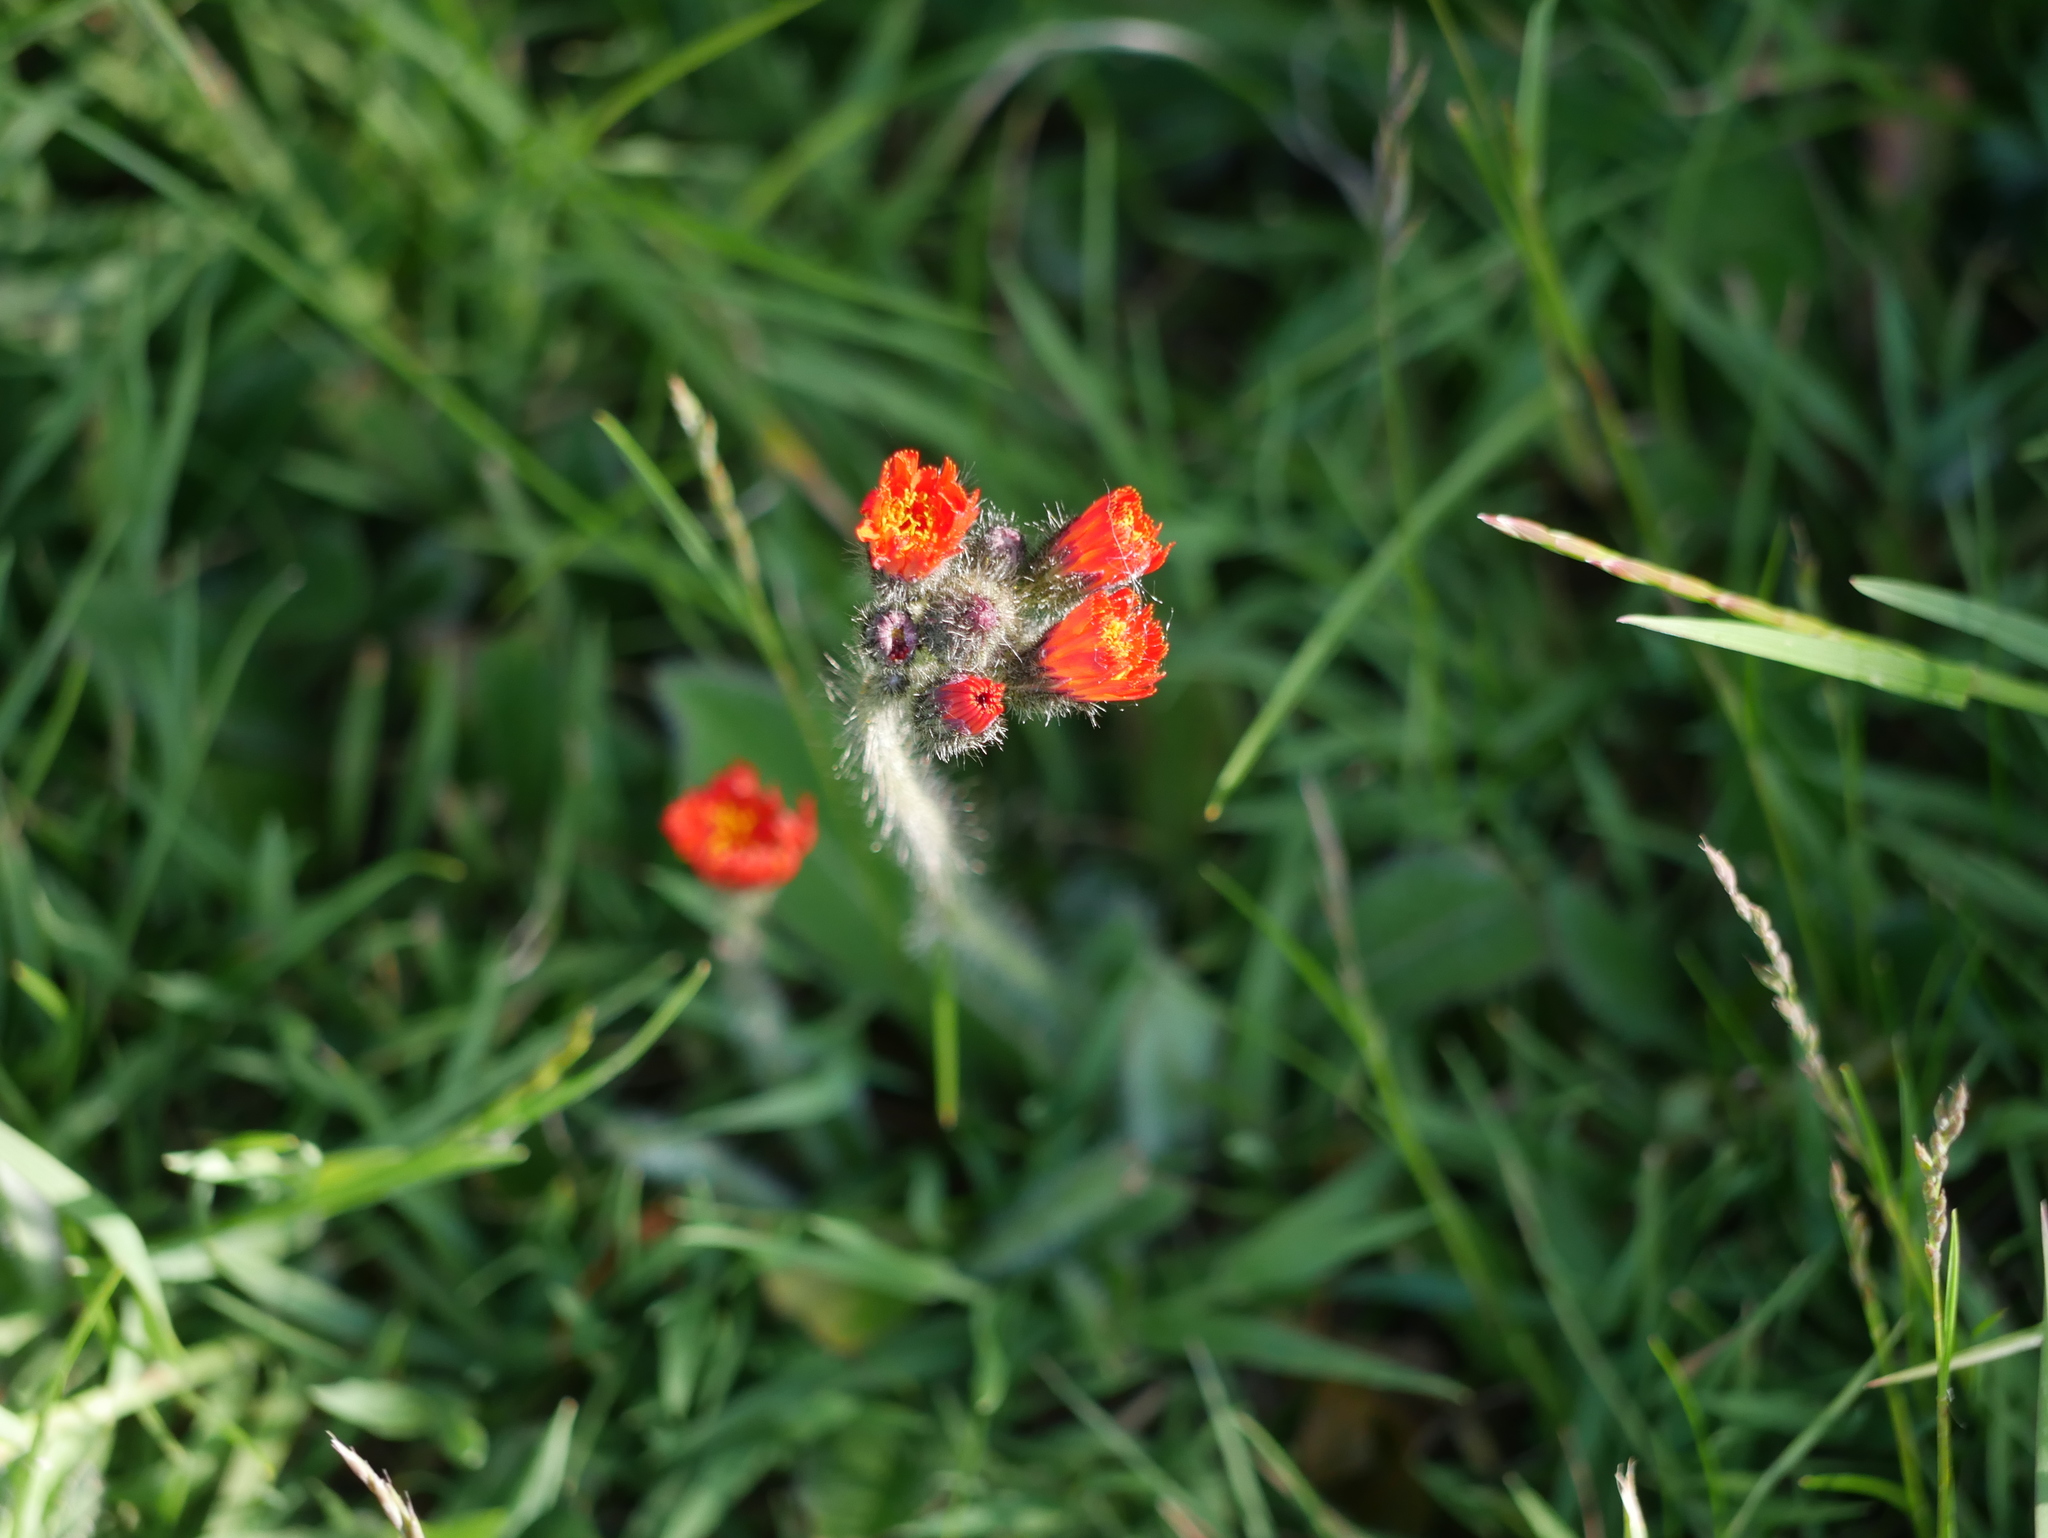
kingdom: Plantae
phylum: Tracheophyta
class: Magnoliopsida
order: Asterales
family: Asteraceae
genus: Pilosella
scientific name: Pilosella aurantiaca
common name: Fox-and-cubs
